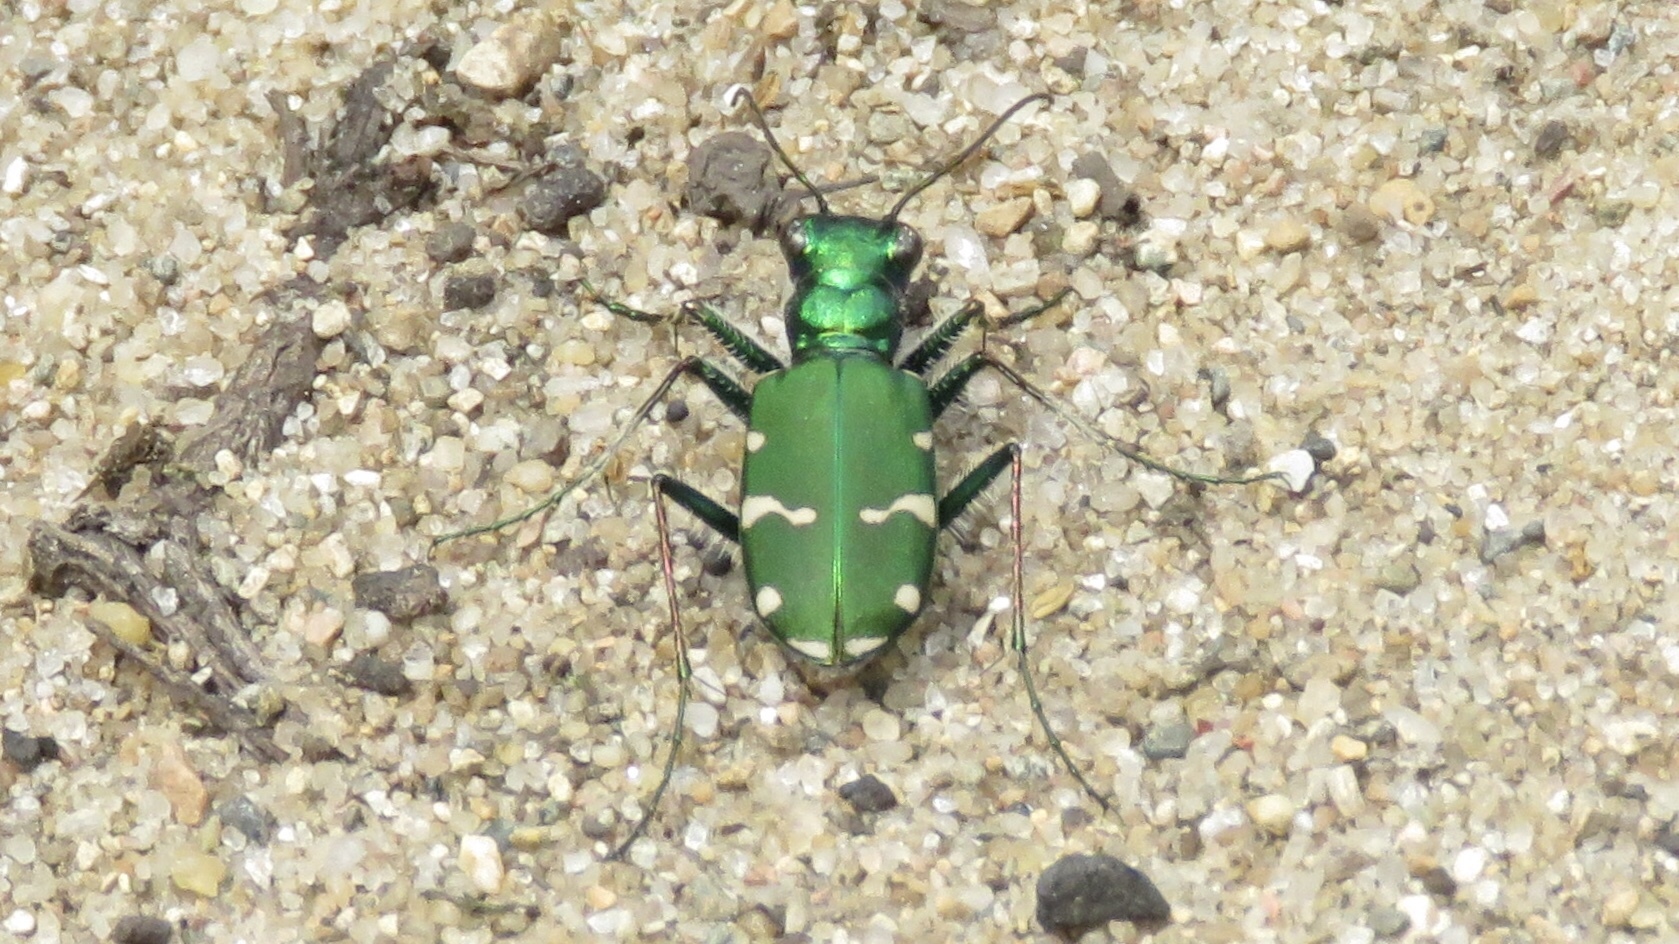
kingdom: Animalia
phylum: Arthropoda
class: Insecta
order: Coleoptera
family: Carabidae
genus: Cicindela
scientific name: Cicindela patruela
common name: Northern barrens tiger beetle
